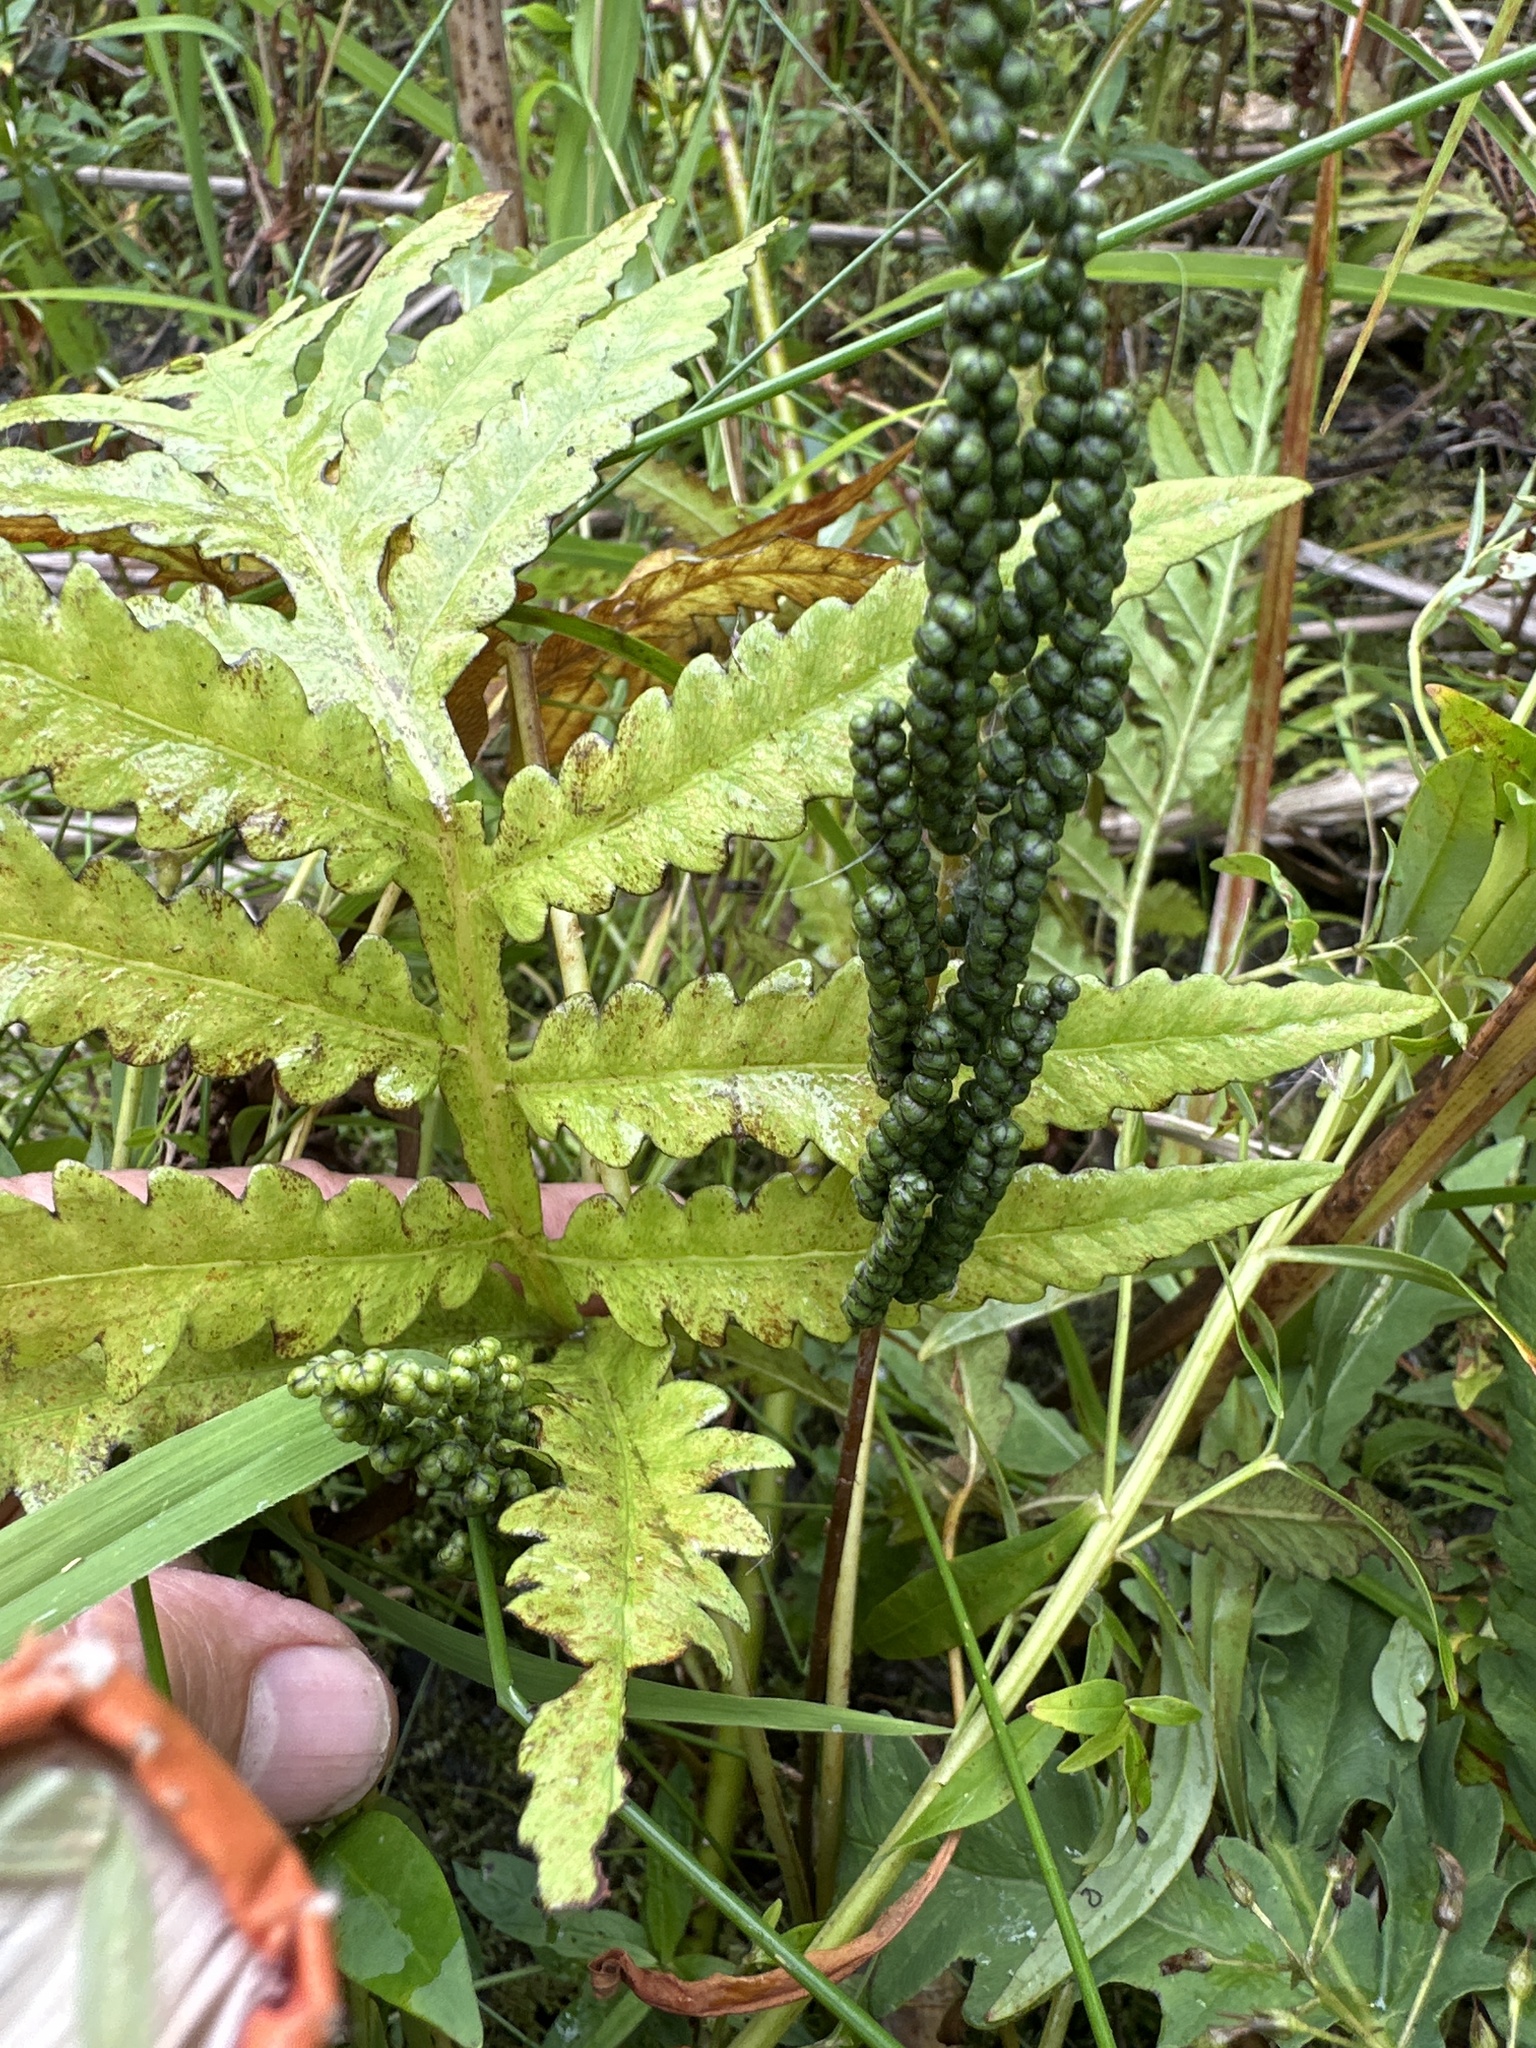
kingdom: Plantae
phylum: Tracheophyta
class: Polypodiopsida
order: Polypodiales
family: Onocleaceae
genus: Onoclea
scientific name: Onoclea sensibilis
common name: Sensitive fern
